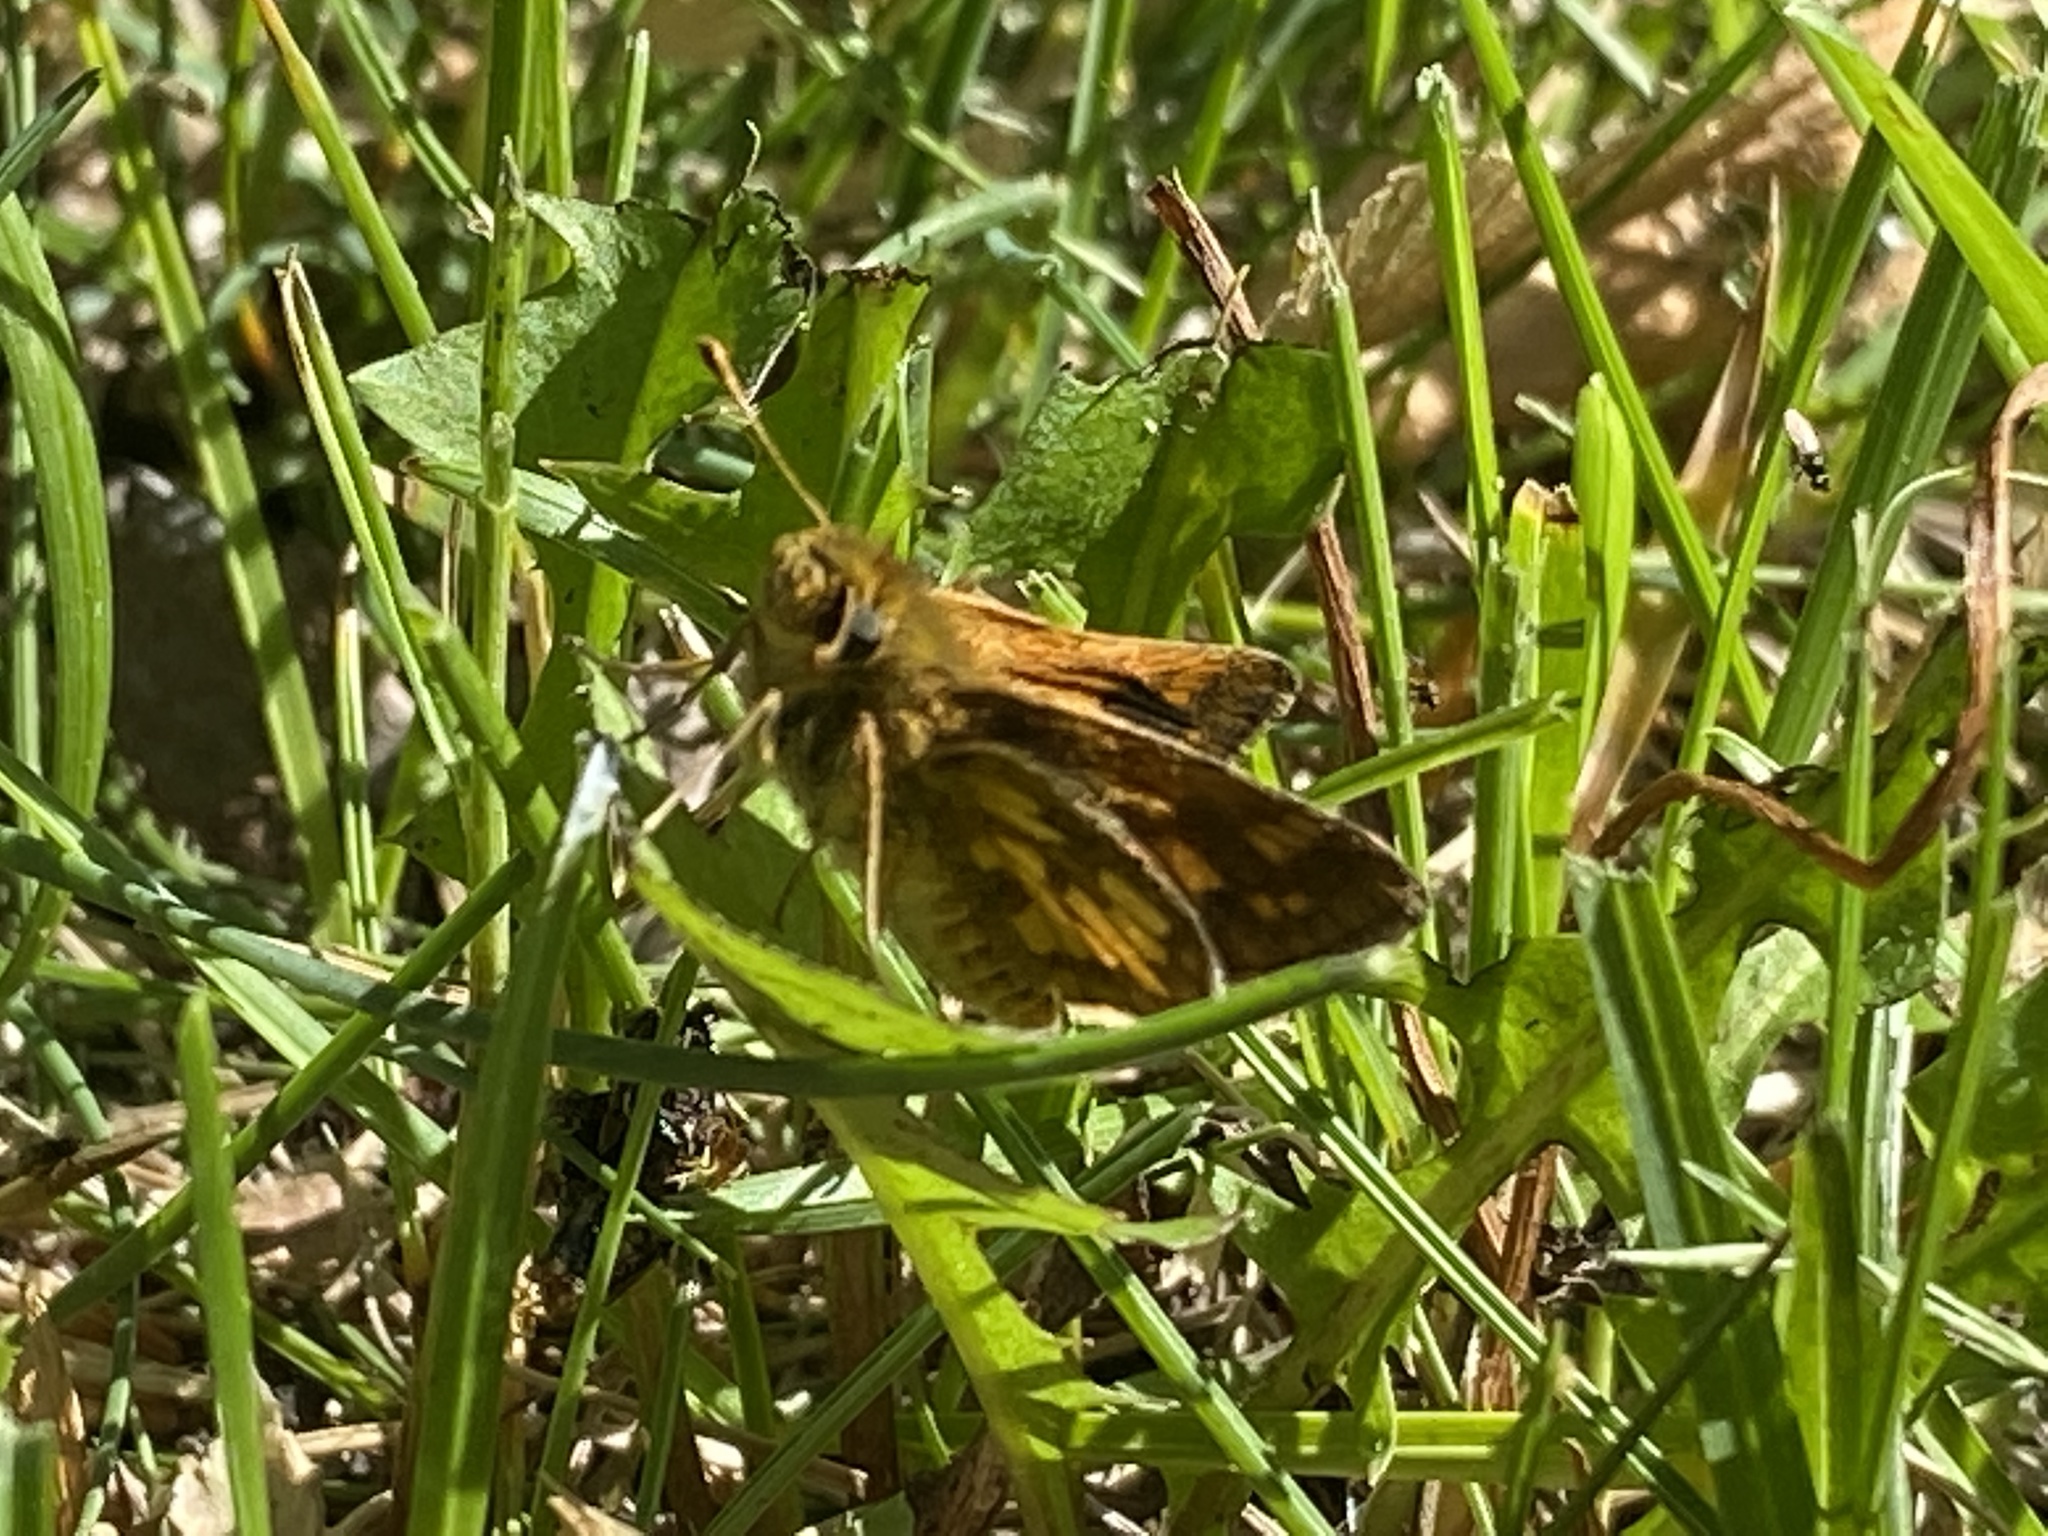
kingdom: Animalia
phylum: Arthropoda
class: Insecta
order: Lepidoptera
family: Hesperiidae
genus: Polites
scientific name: Polites coras
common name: Peck's skipper
